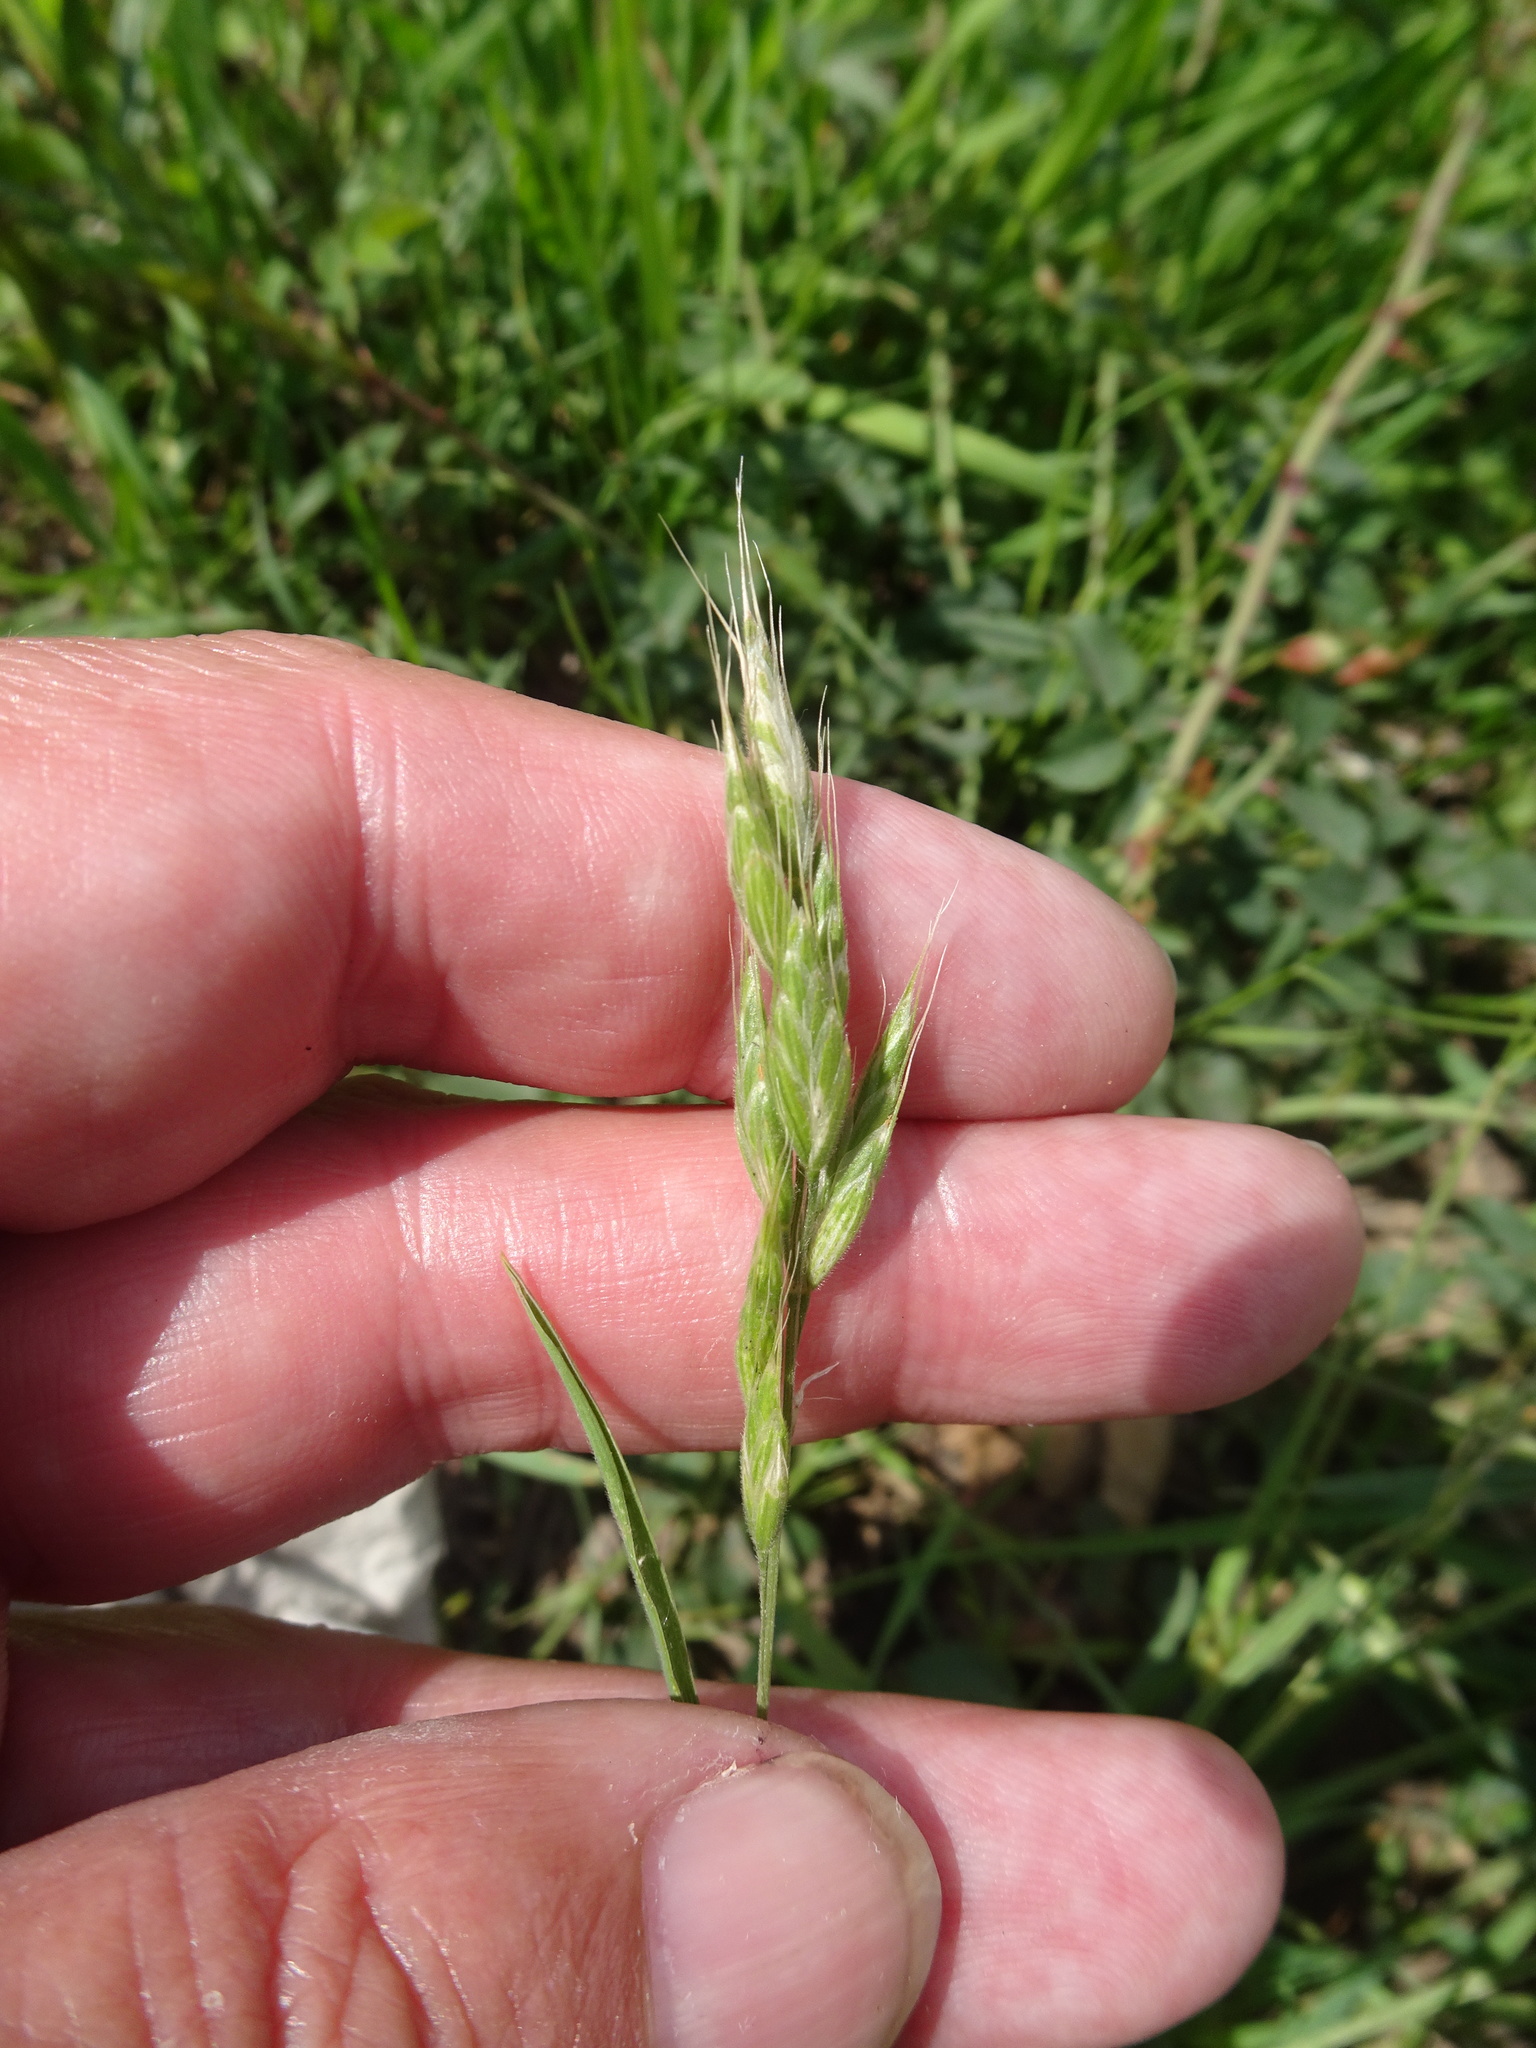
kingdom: Plantae
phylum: Tracheophyta
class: Liliopsida
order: Poales
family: Poaceae
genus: Bromus
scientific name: Bromus hordeaceus
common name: Soft brome
